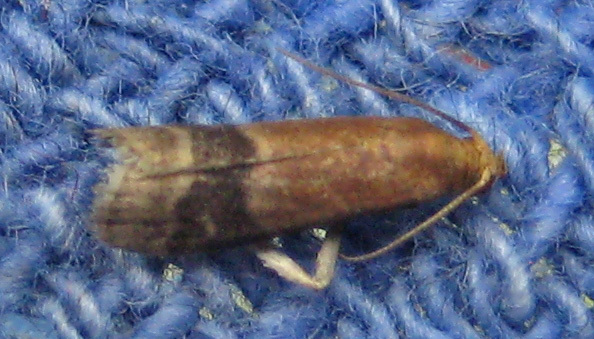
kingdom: Animalia
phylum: Arthropoda
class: Insecta
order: Lepidoptera
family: Pyralidae
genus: Eulogia
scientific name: Eulogia ochrifrontella
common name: Broad-banded eulogia moth
